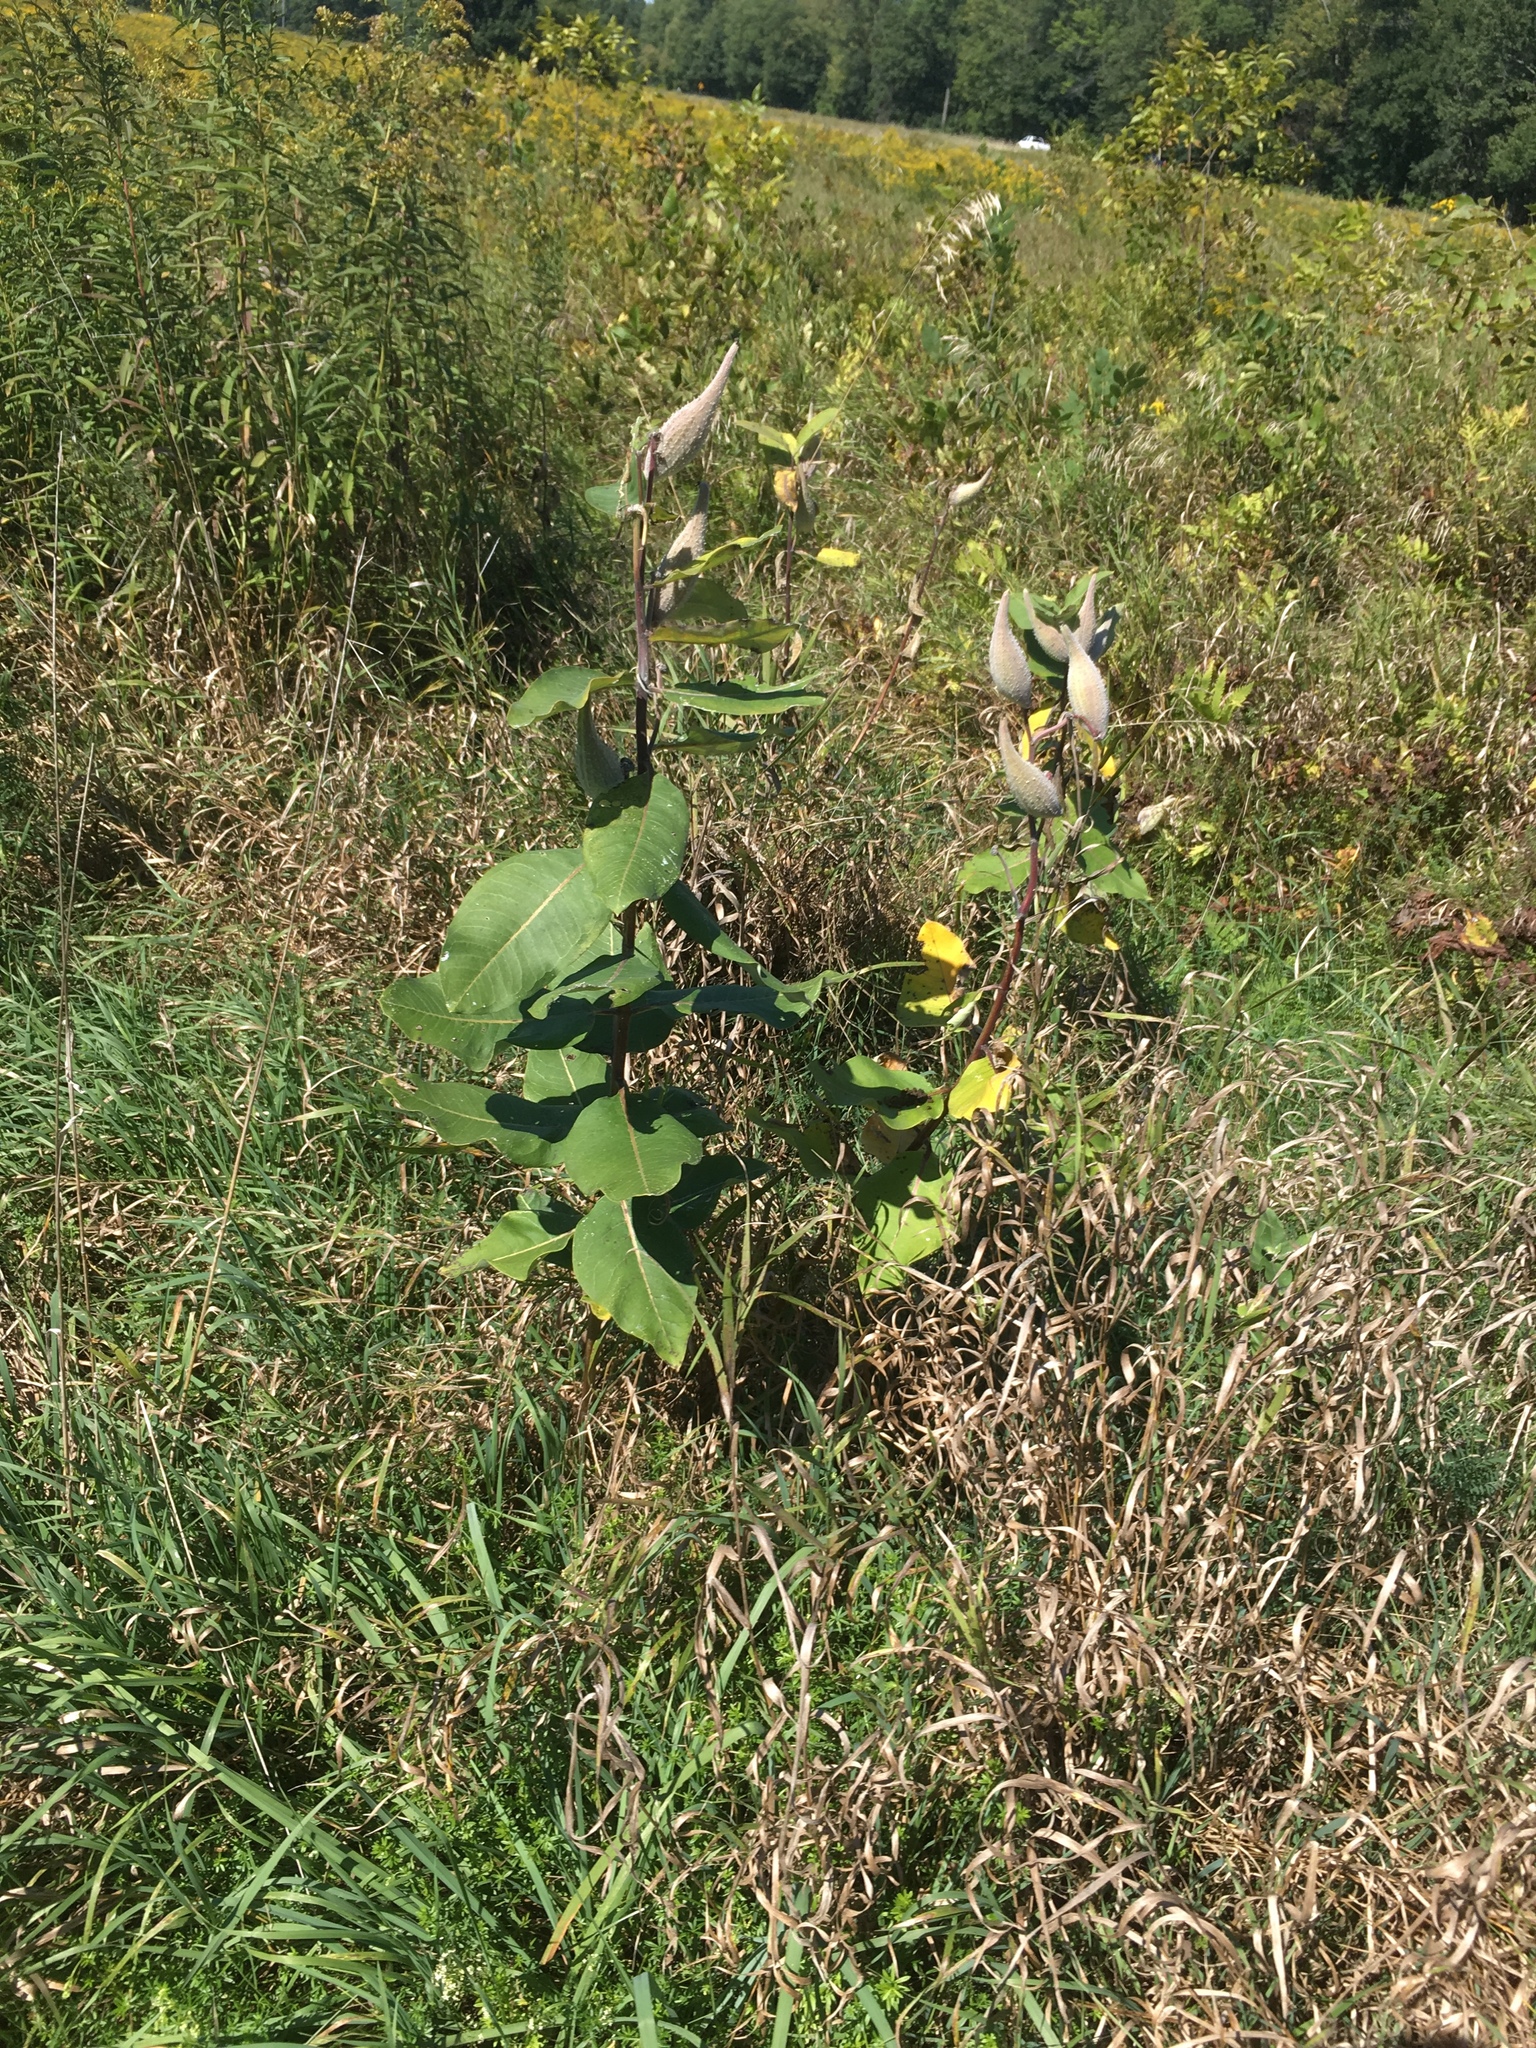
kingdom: Plantae
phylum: Tracheophyta
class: Magnoliopsida
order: Gentianales
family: Apocynaceae
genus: Asclepias
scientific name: Asclepias syriaca
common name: Common milkweed
